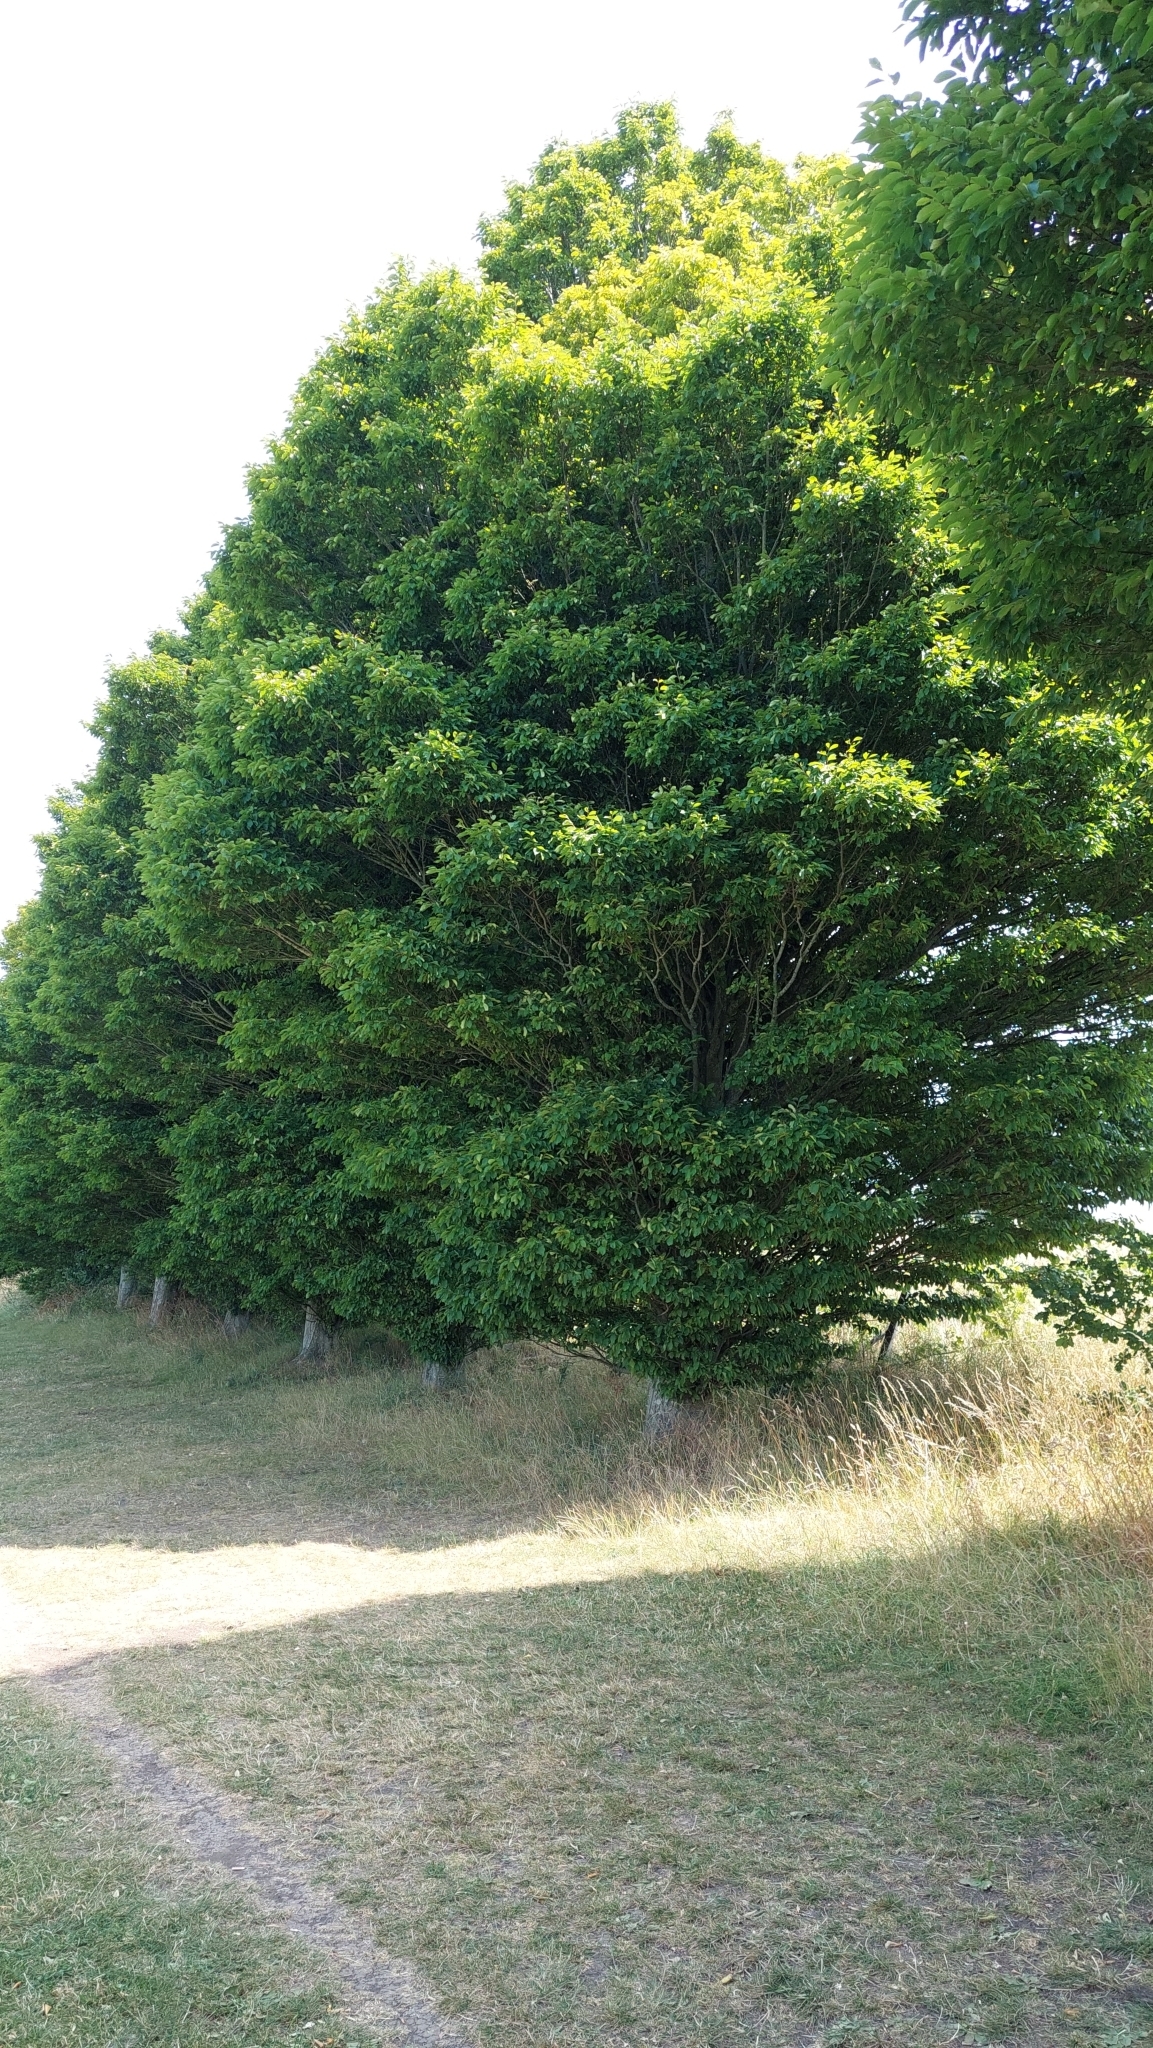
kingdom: Plantae
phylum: Tracheophyta
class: Magnoliopsida
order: Fagales
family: Betulaceae
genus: Carpinus
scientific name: Carpinus betulus
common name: Hornbeam
